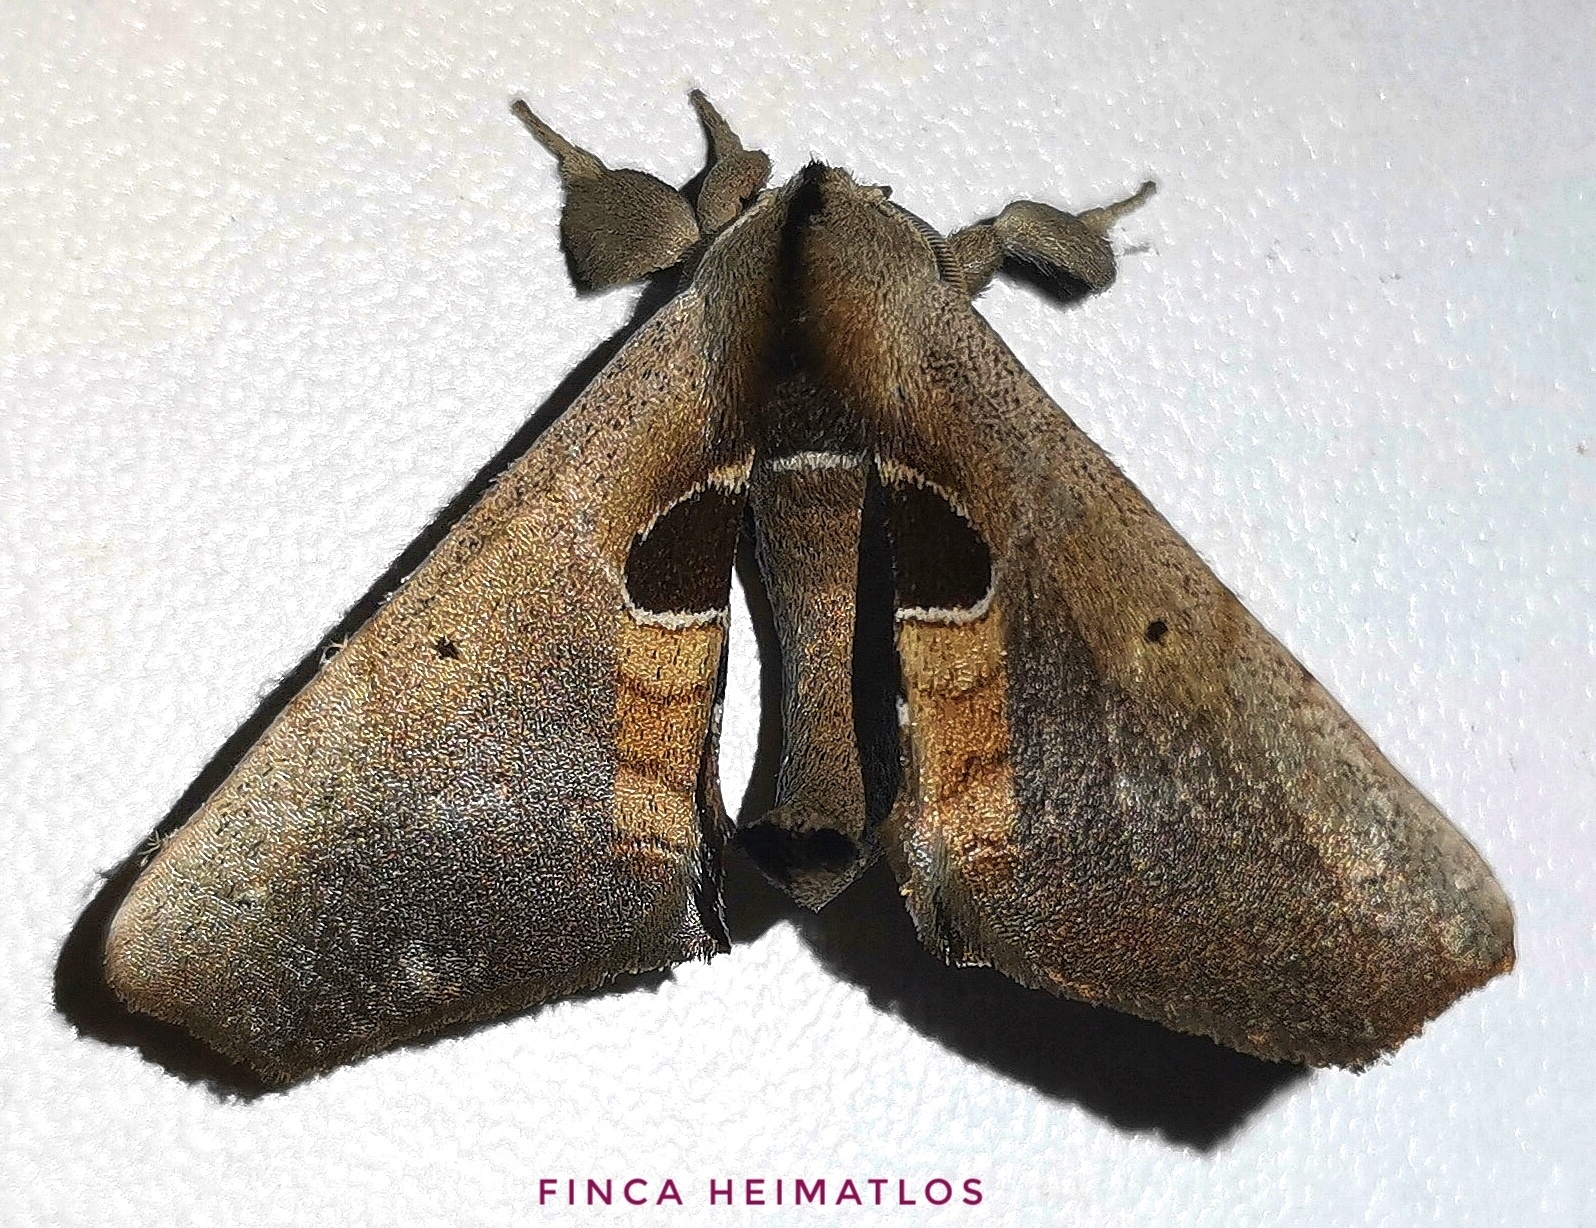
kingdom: Animalia
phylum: Arthropoda
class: Insecta
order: Lepidoptera
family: Apatelodidae
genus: Hygrochroa
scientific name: Hygrochroa Apatelodes cirna
